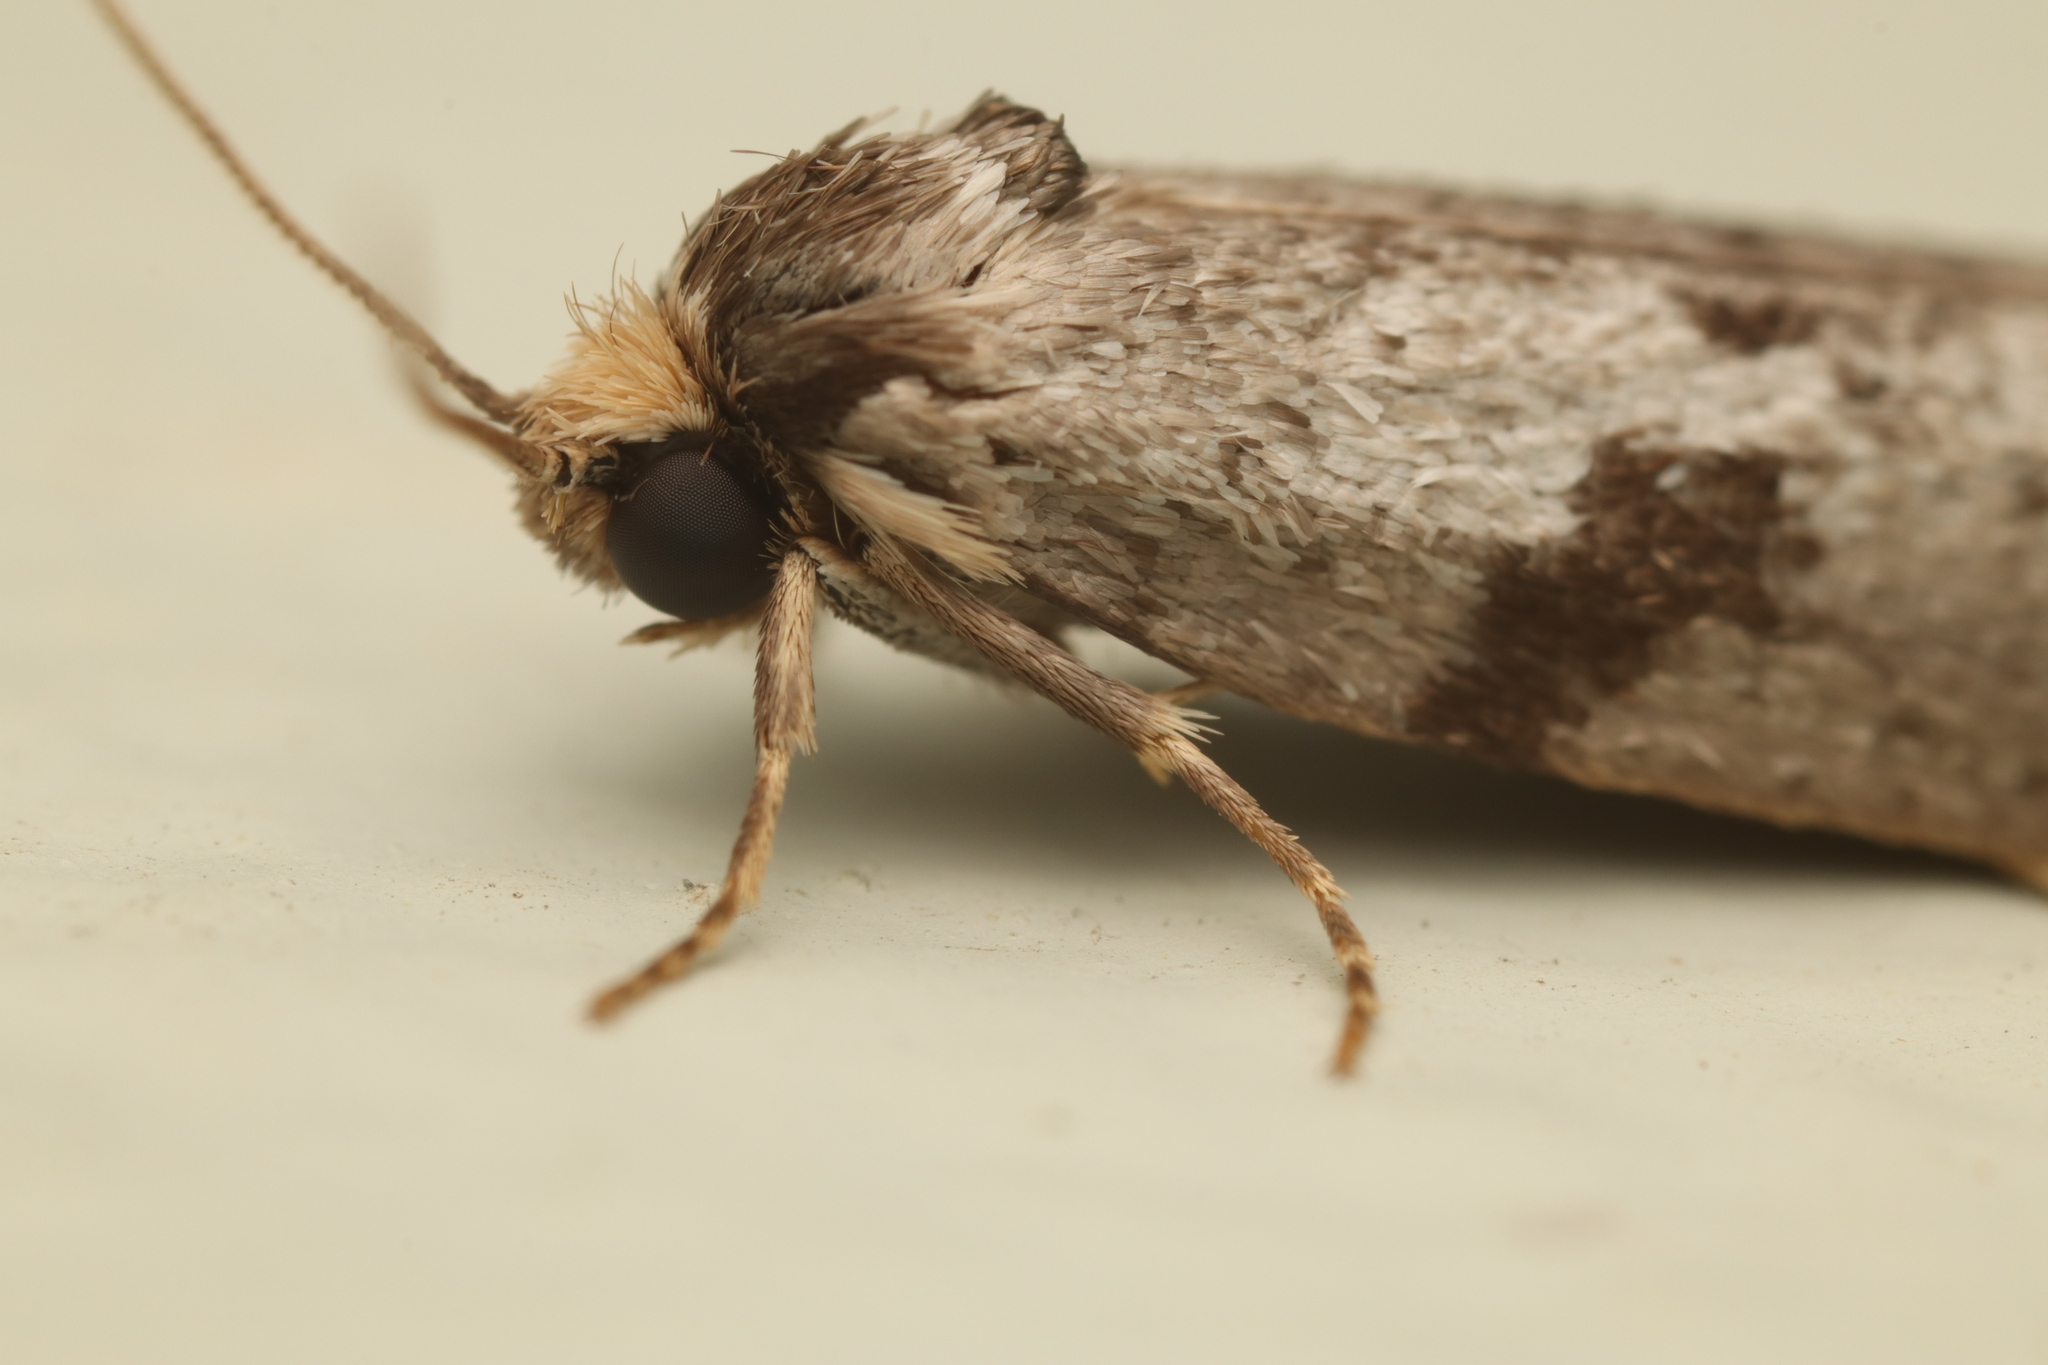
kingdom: Animalia
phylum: Arthropoda
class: Insecta
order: Lepidoptera
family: Psychidae
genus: Lepidoscia
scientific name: Lepidoscia protorna
